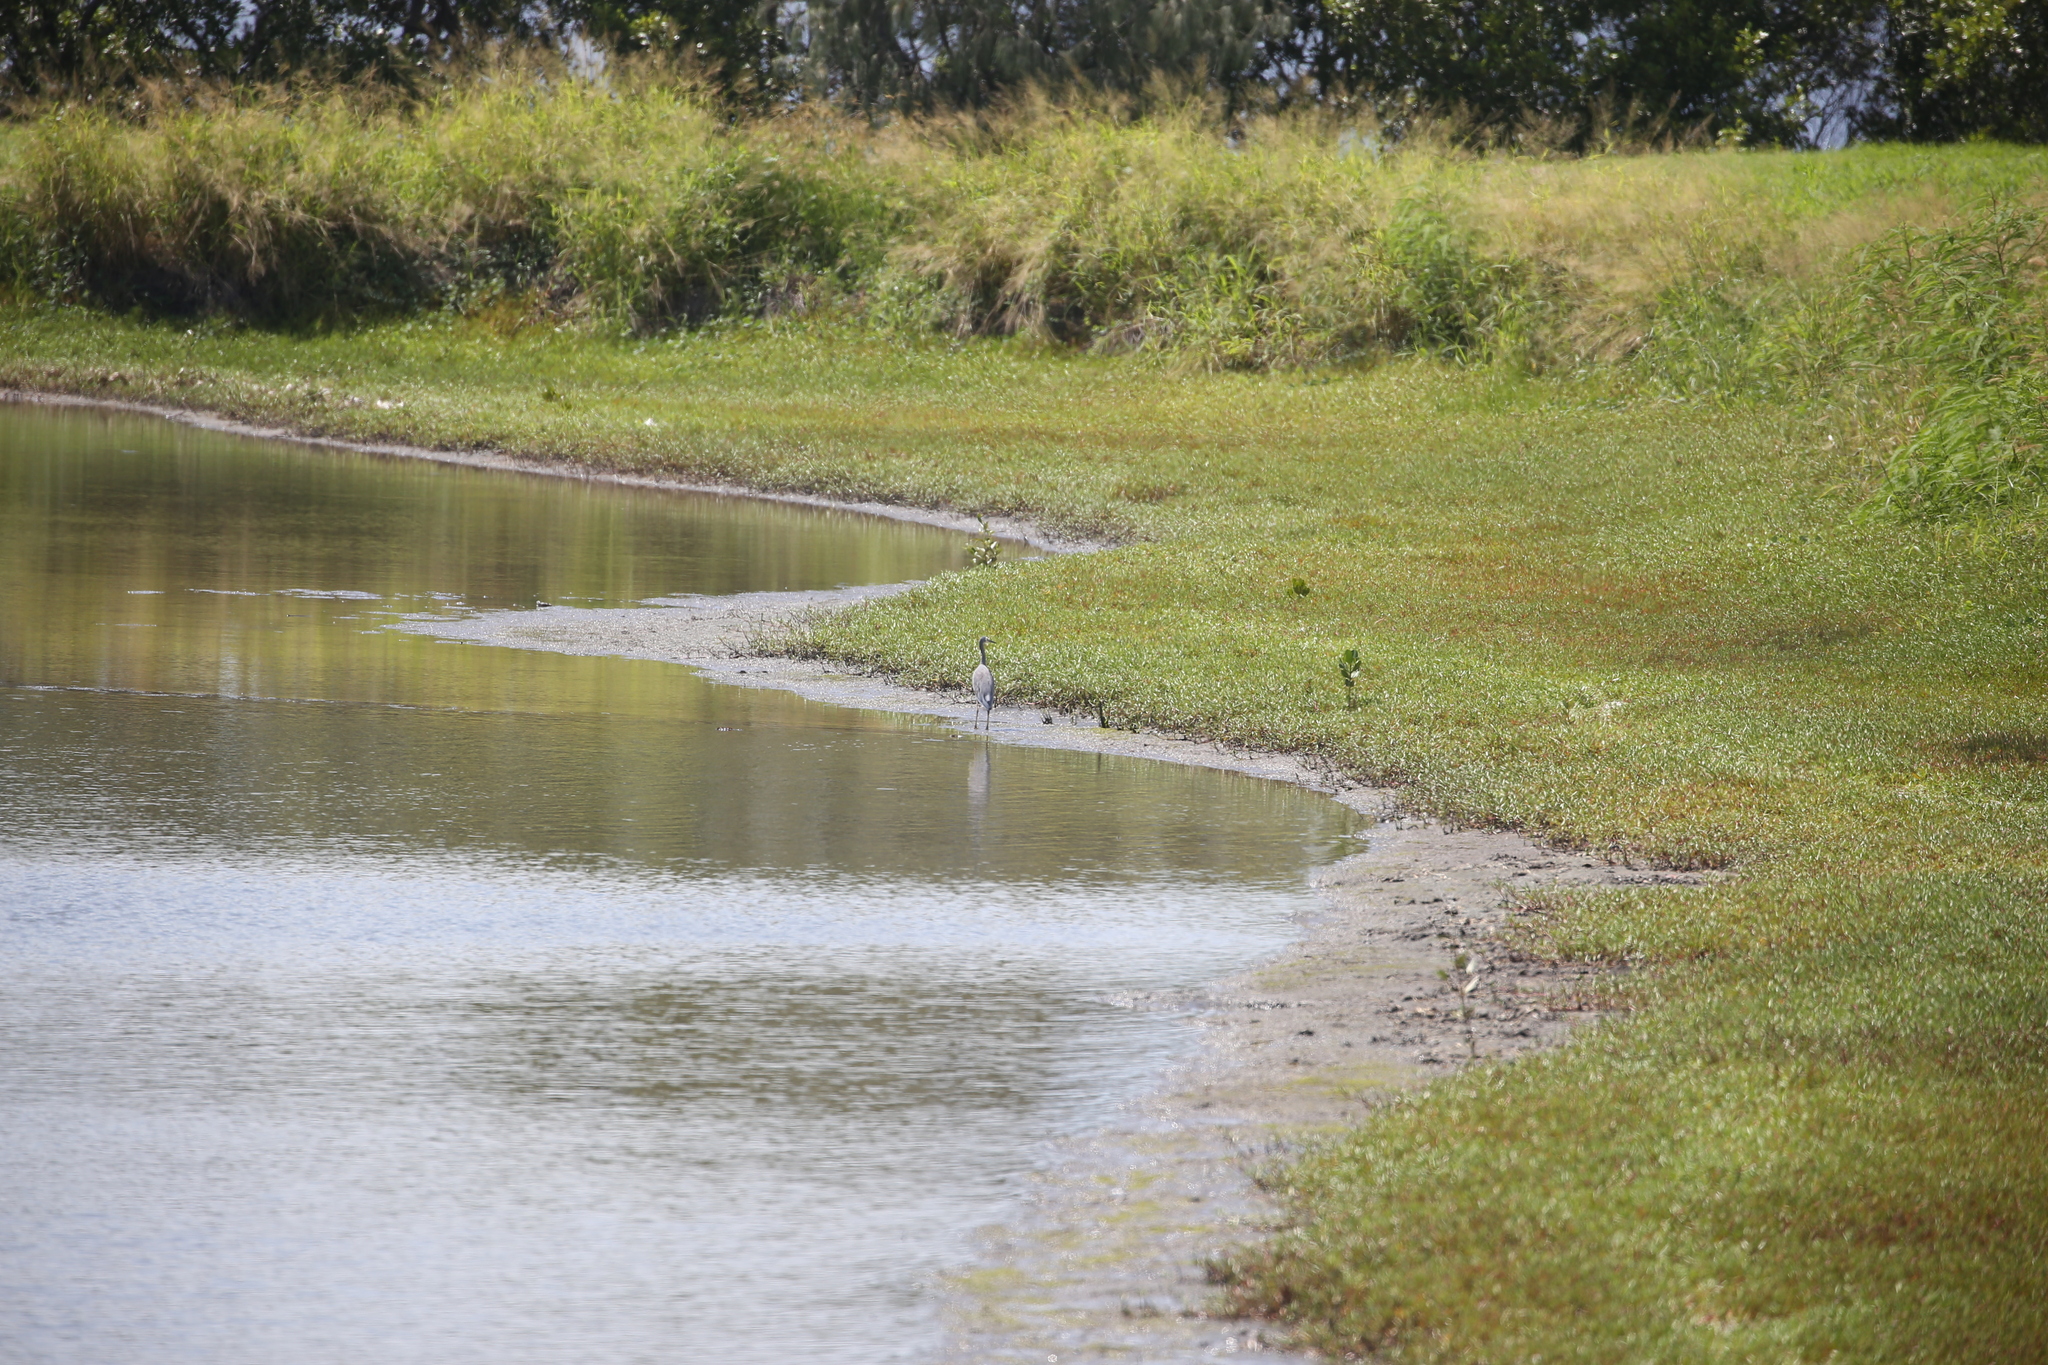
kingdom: Animalia
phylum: Chordata
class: Aves
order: Pelecaniformes
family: Ardeidae
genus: Egretta
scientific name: Egretta novaehollandiae
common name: White-faced heron
